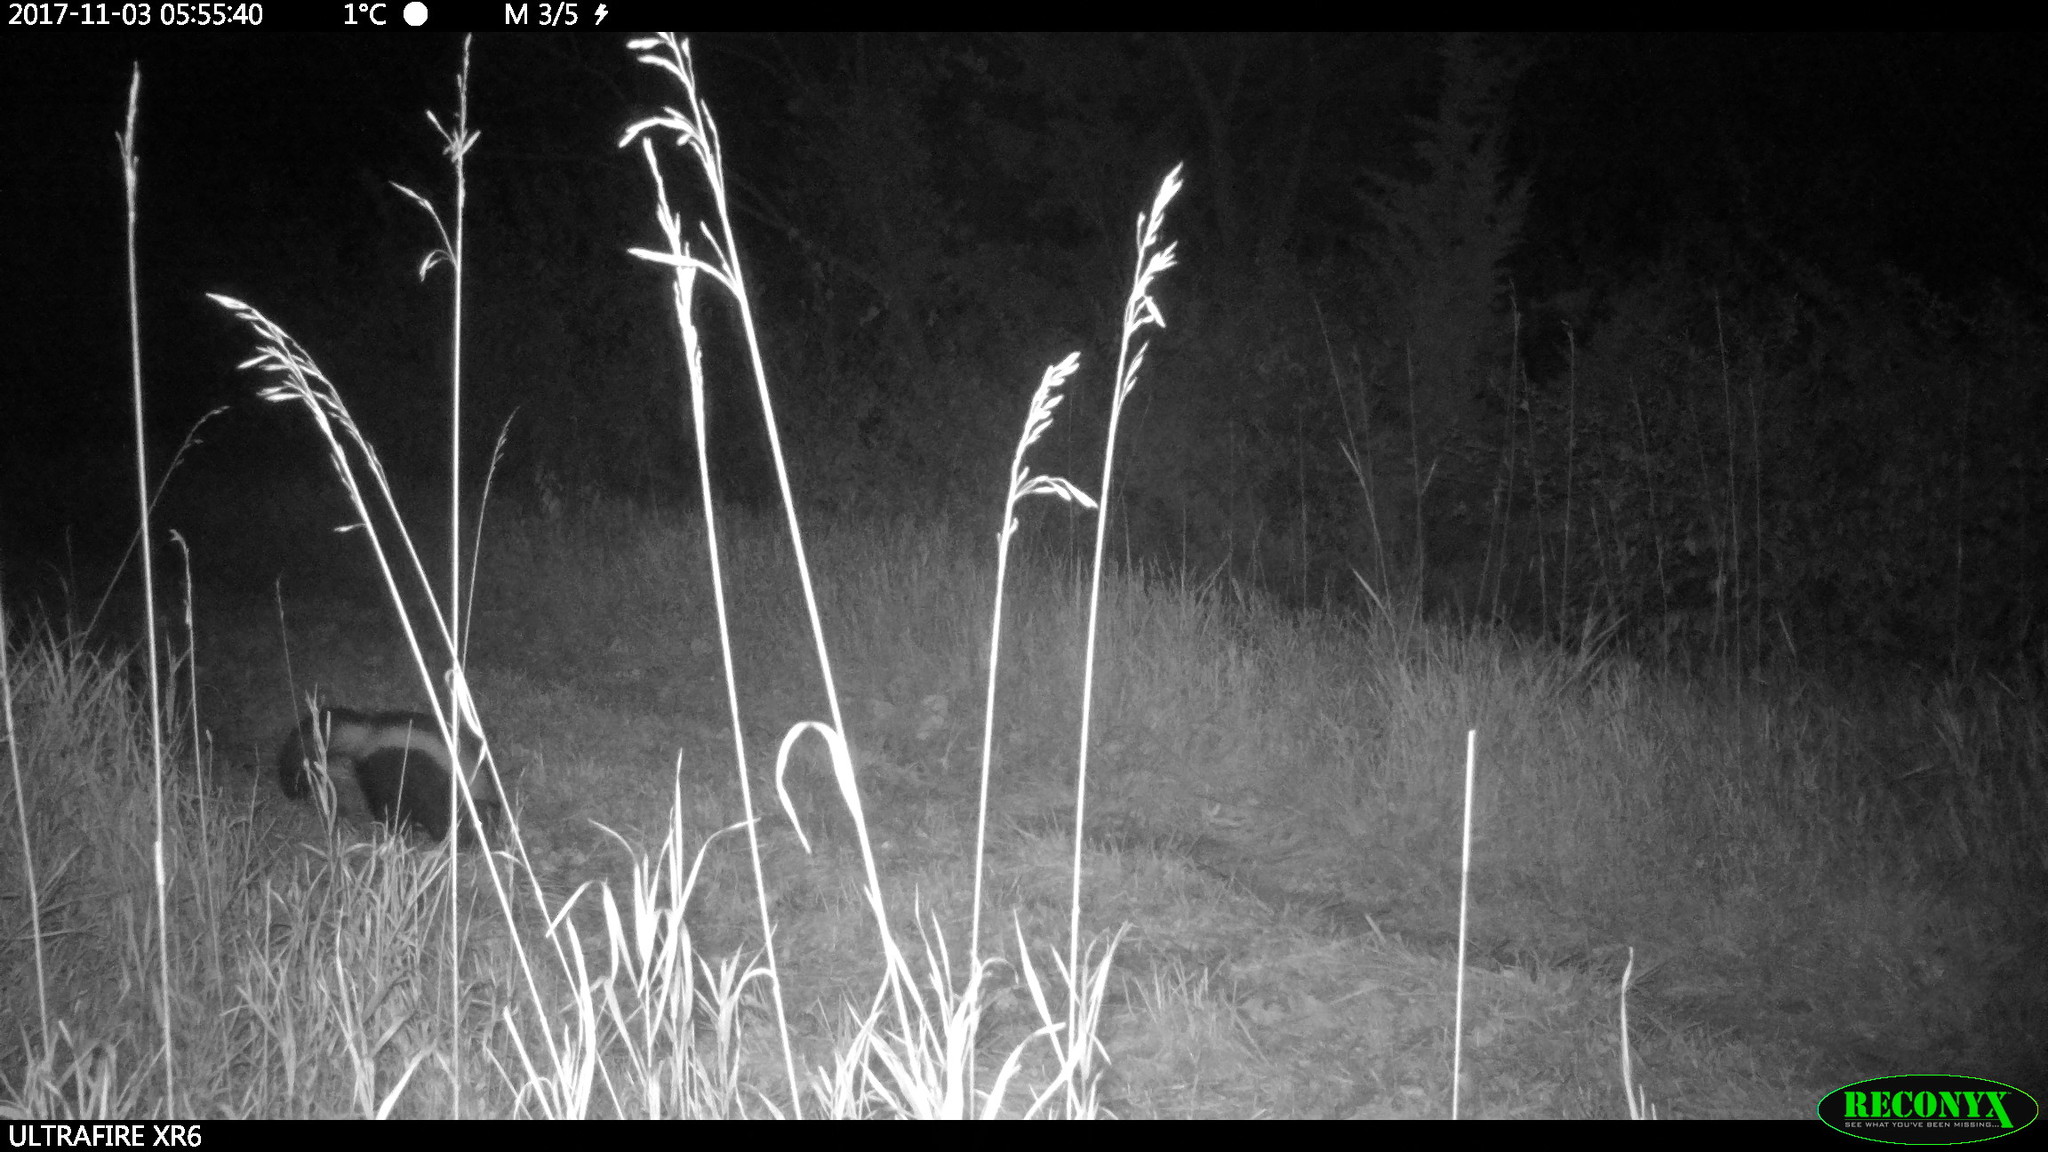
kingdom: Animalia
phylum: Chordata
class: Mammalia
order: Carnivora
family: Mephitidae
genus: Mephitis
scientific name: Mephitis mephitis
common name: Striped skunk
